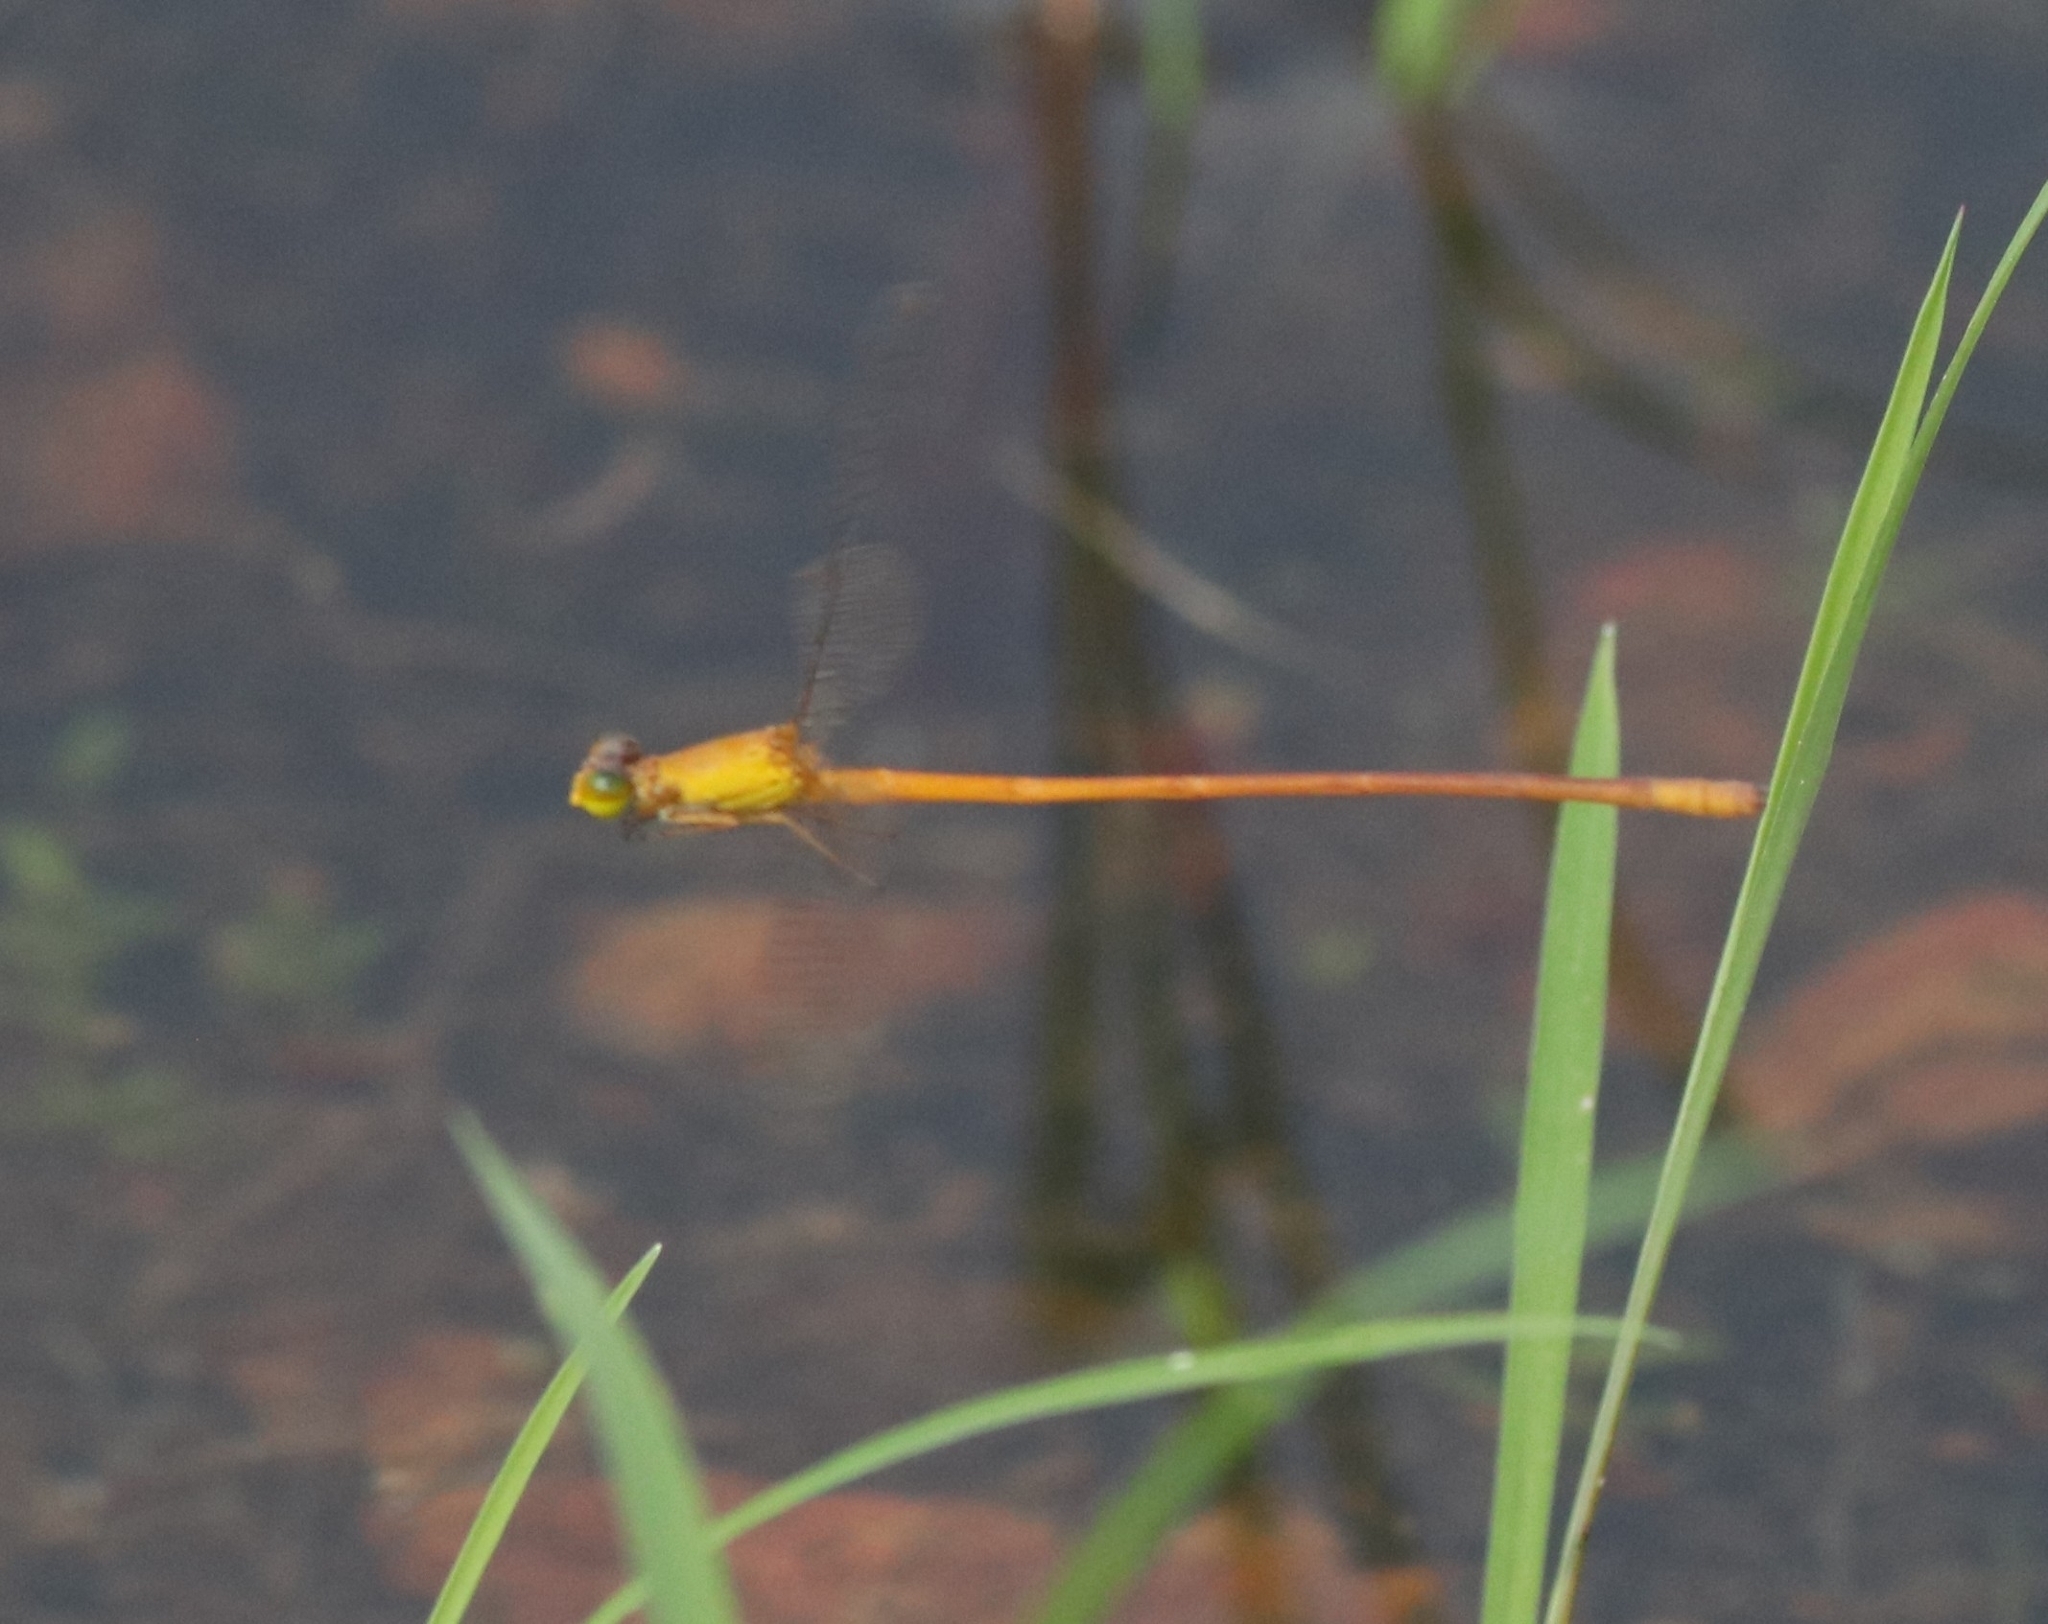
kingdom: Animalia
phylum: Arthropoda
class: Insecta
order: Odonata
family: Coenagrionidae
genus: Ceriagrion
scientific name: Ceriagrion rubiae
